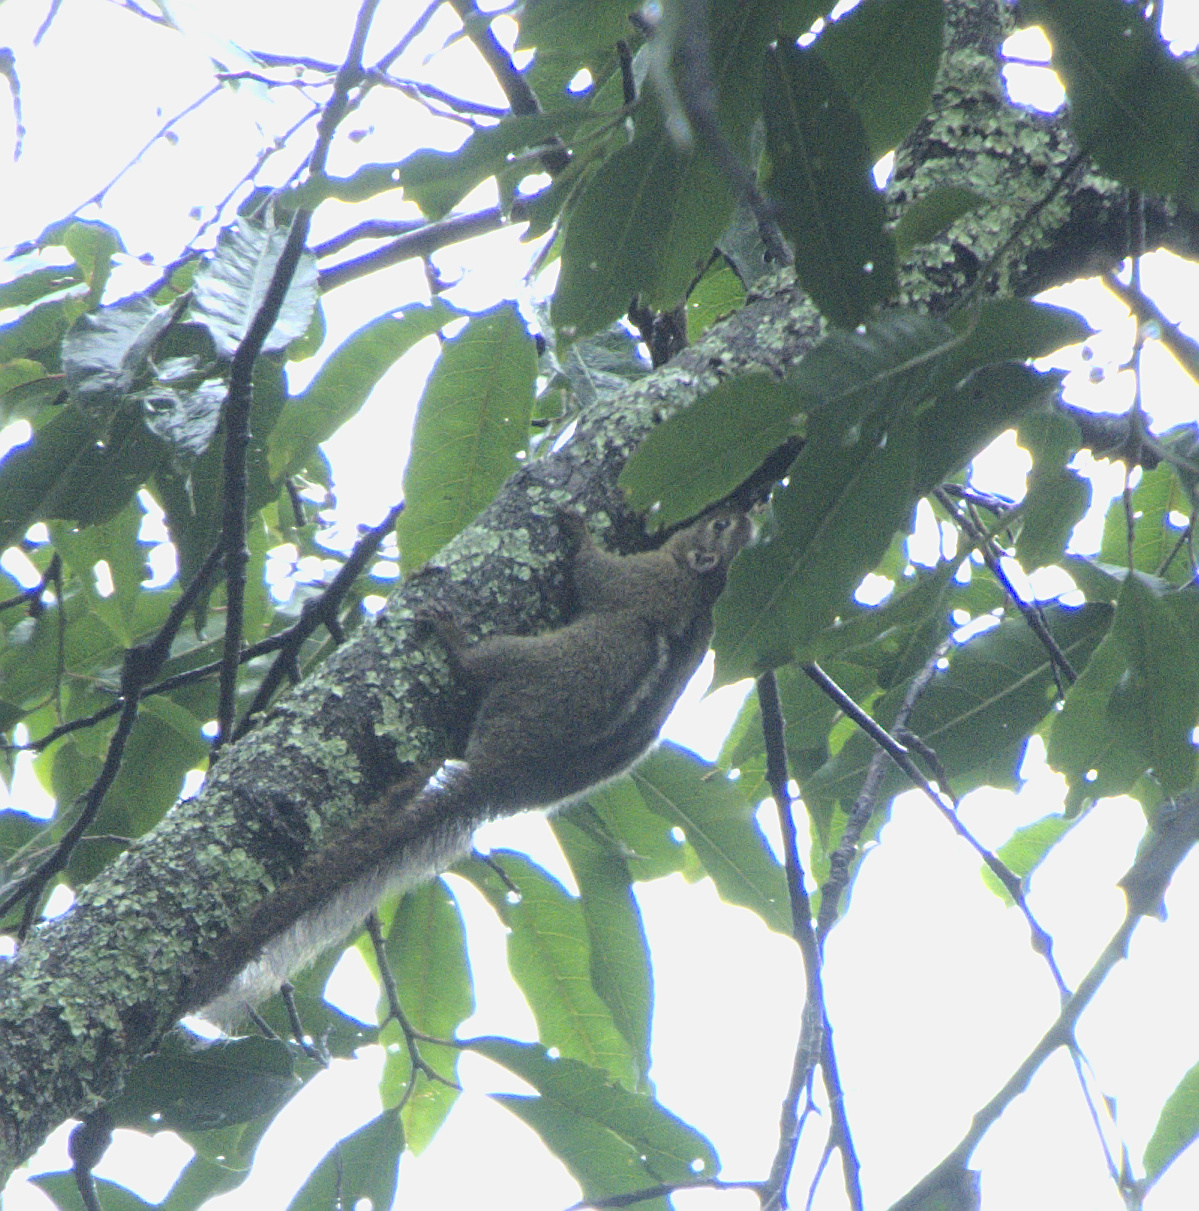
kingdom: Animalia
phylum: Chordata
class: Mammalia
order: Rodentia
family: Sciuridae
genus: Paraxerus
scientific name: Paraxerus boehmi
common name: Boehm's bush squirrel
